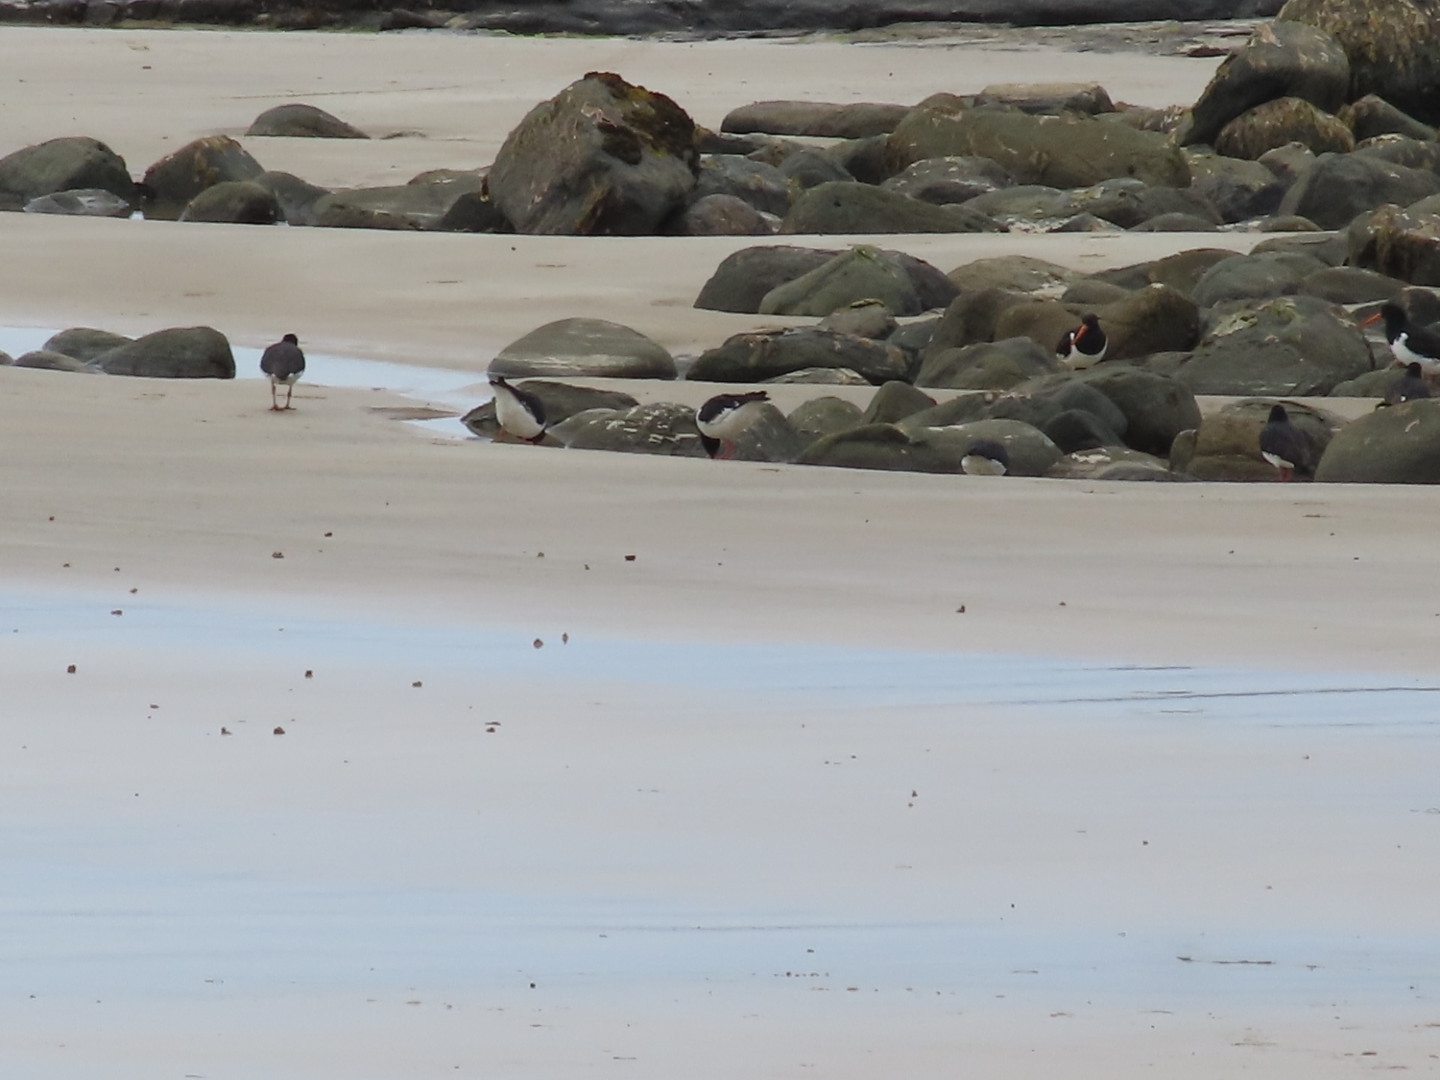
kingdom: Animalia
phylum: Chordata
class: Aves
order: Charadriiformes
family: Haematopodidae
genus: Haematopus
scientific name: Haematopus finschi
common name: South island oystercatcher
